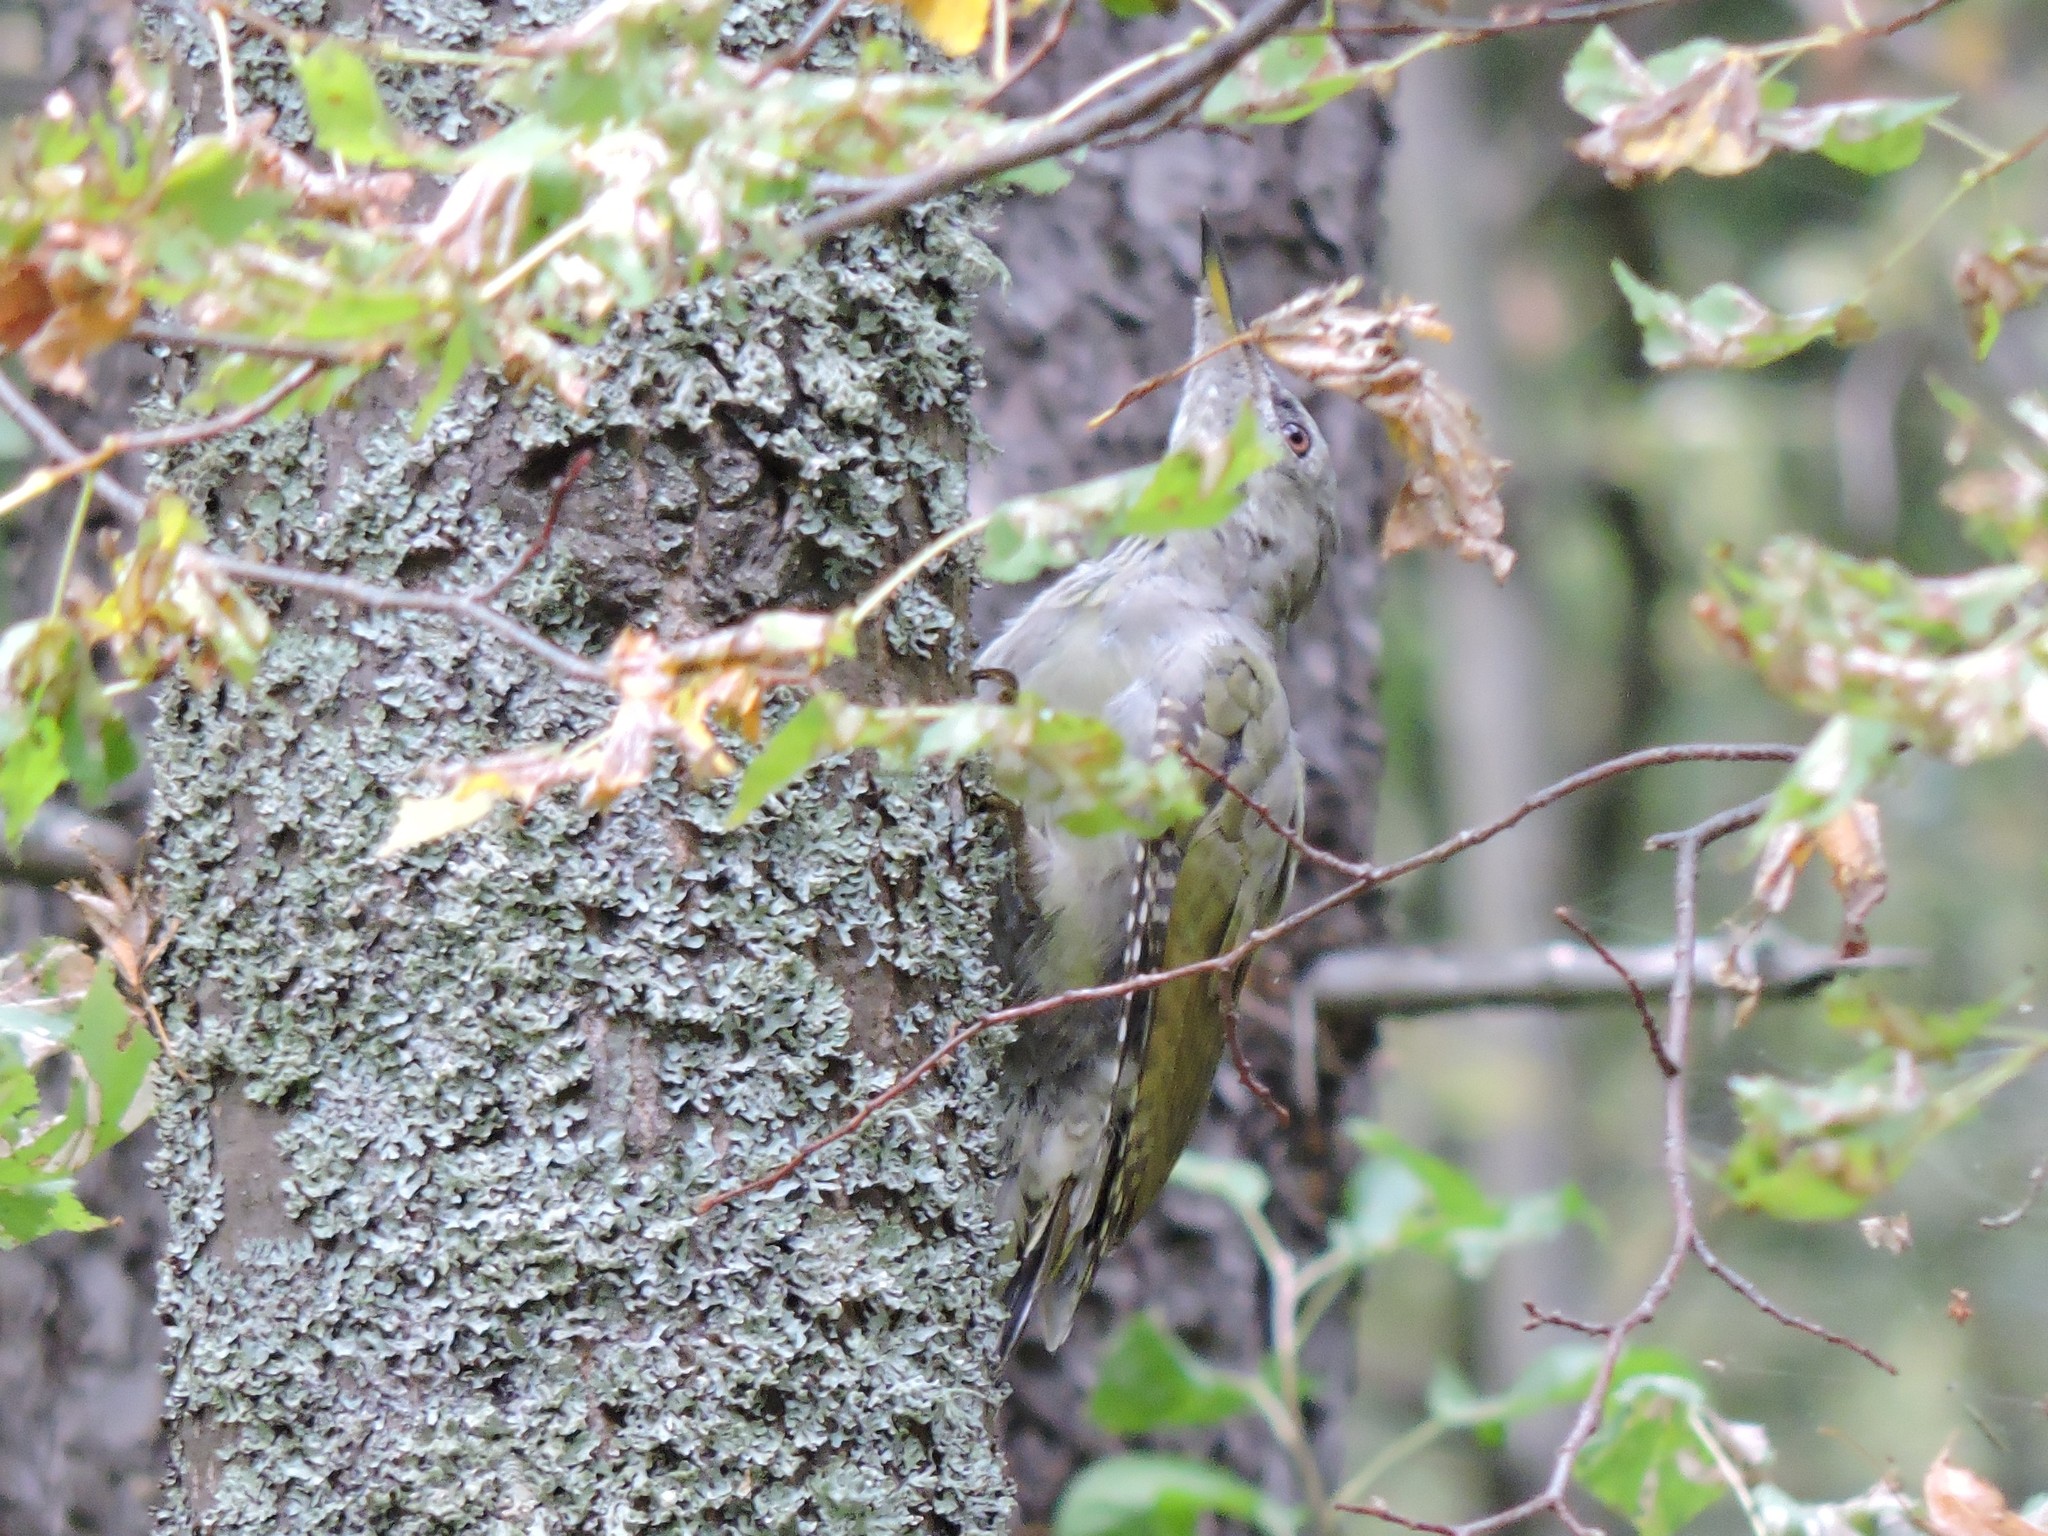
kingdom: Animalia
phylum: Chordata
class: Aves
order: Piciformes
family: Picidae
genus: Picus
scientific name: Picus canus
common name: Grey-headed woodpecker
